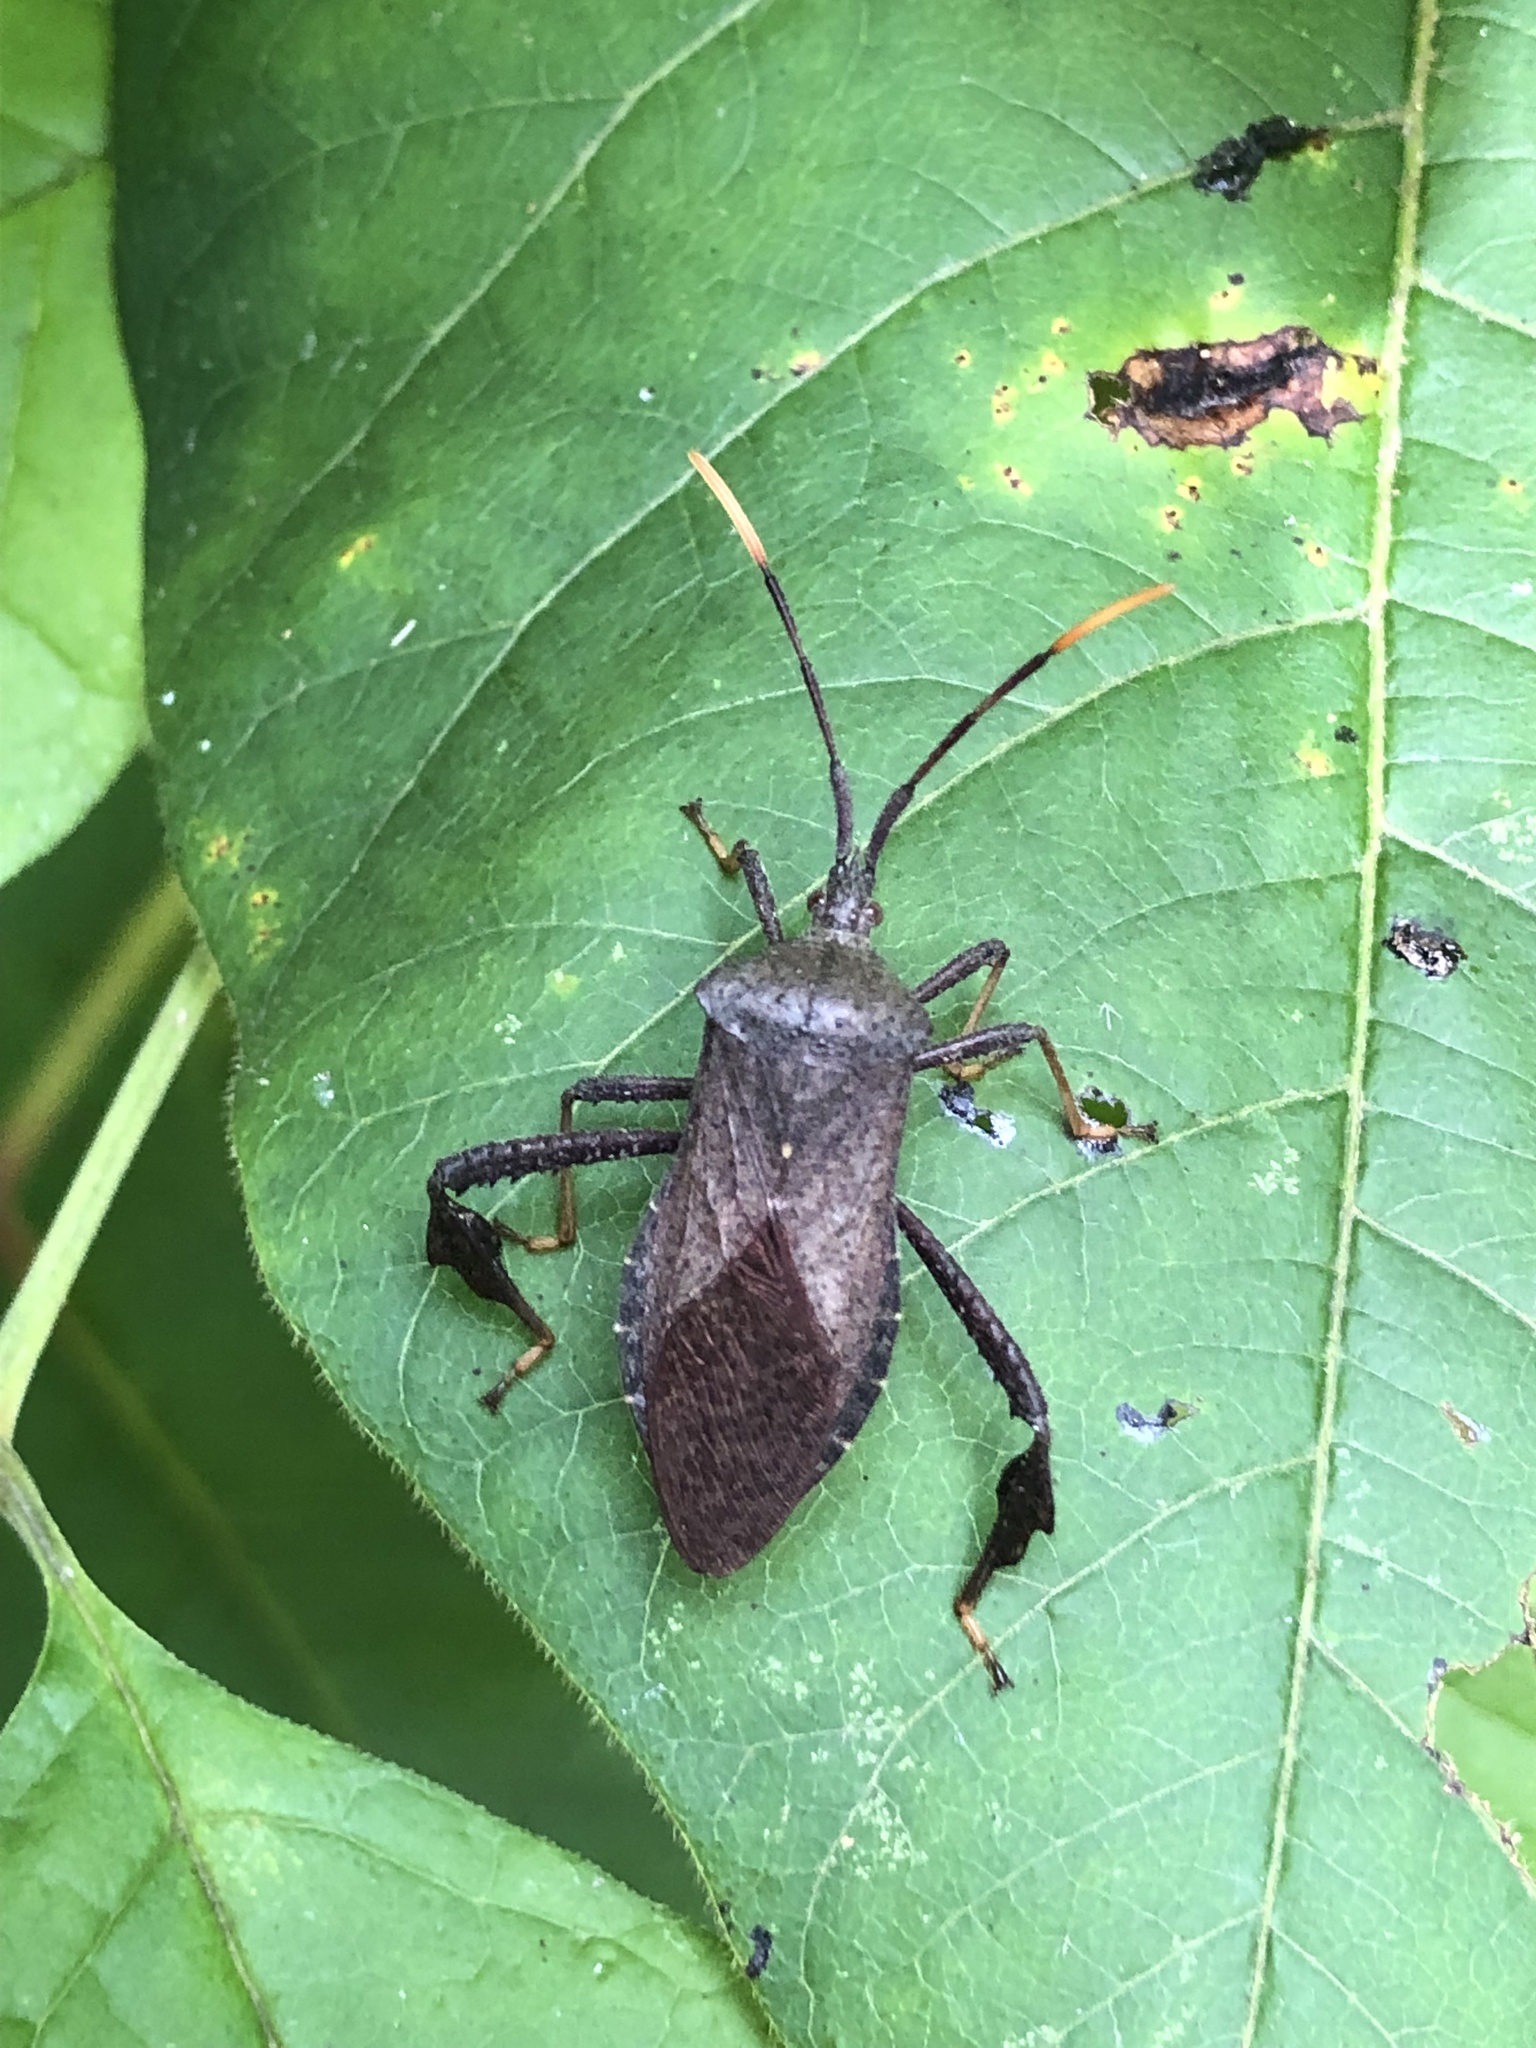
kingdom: Animalia
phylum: Arthropoda
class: Insecta
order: Hemiptera
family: Coreidae
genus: Acanthocephala
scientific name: Acanthocephala terminalis
